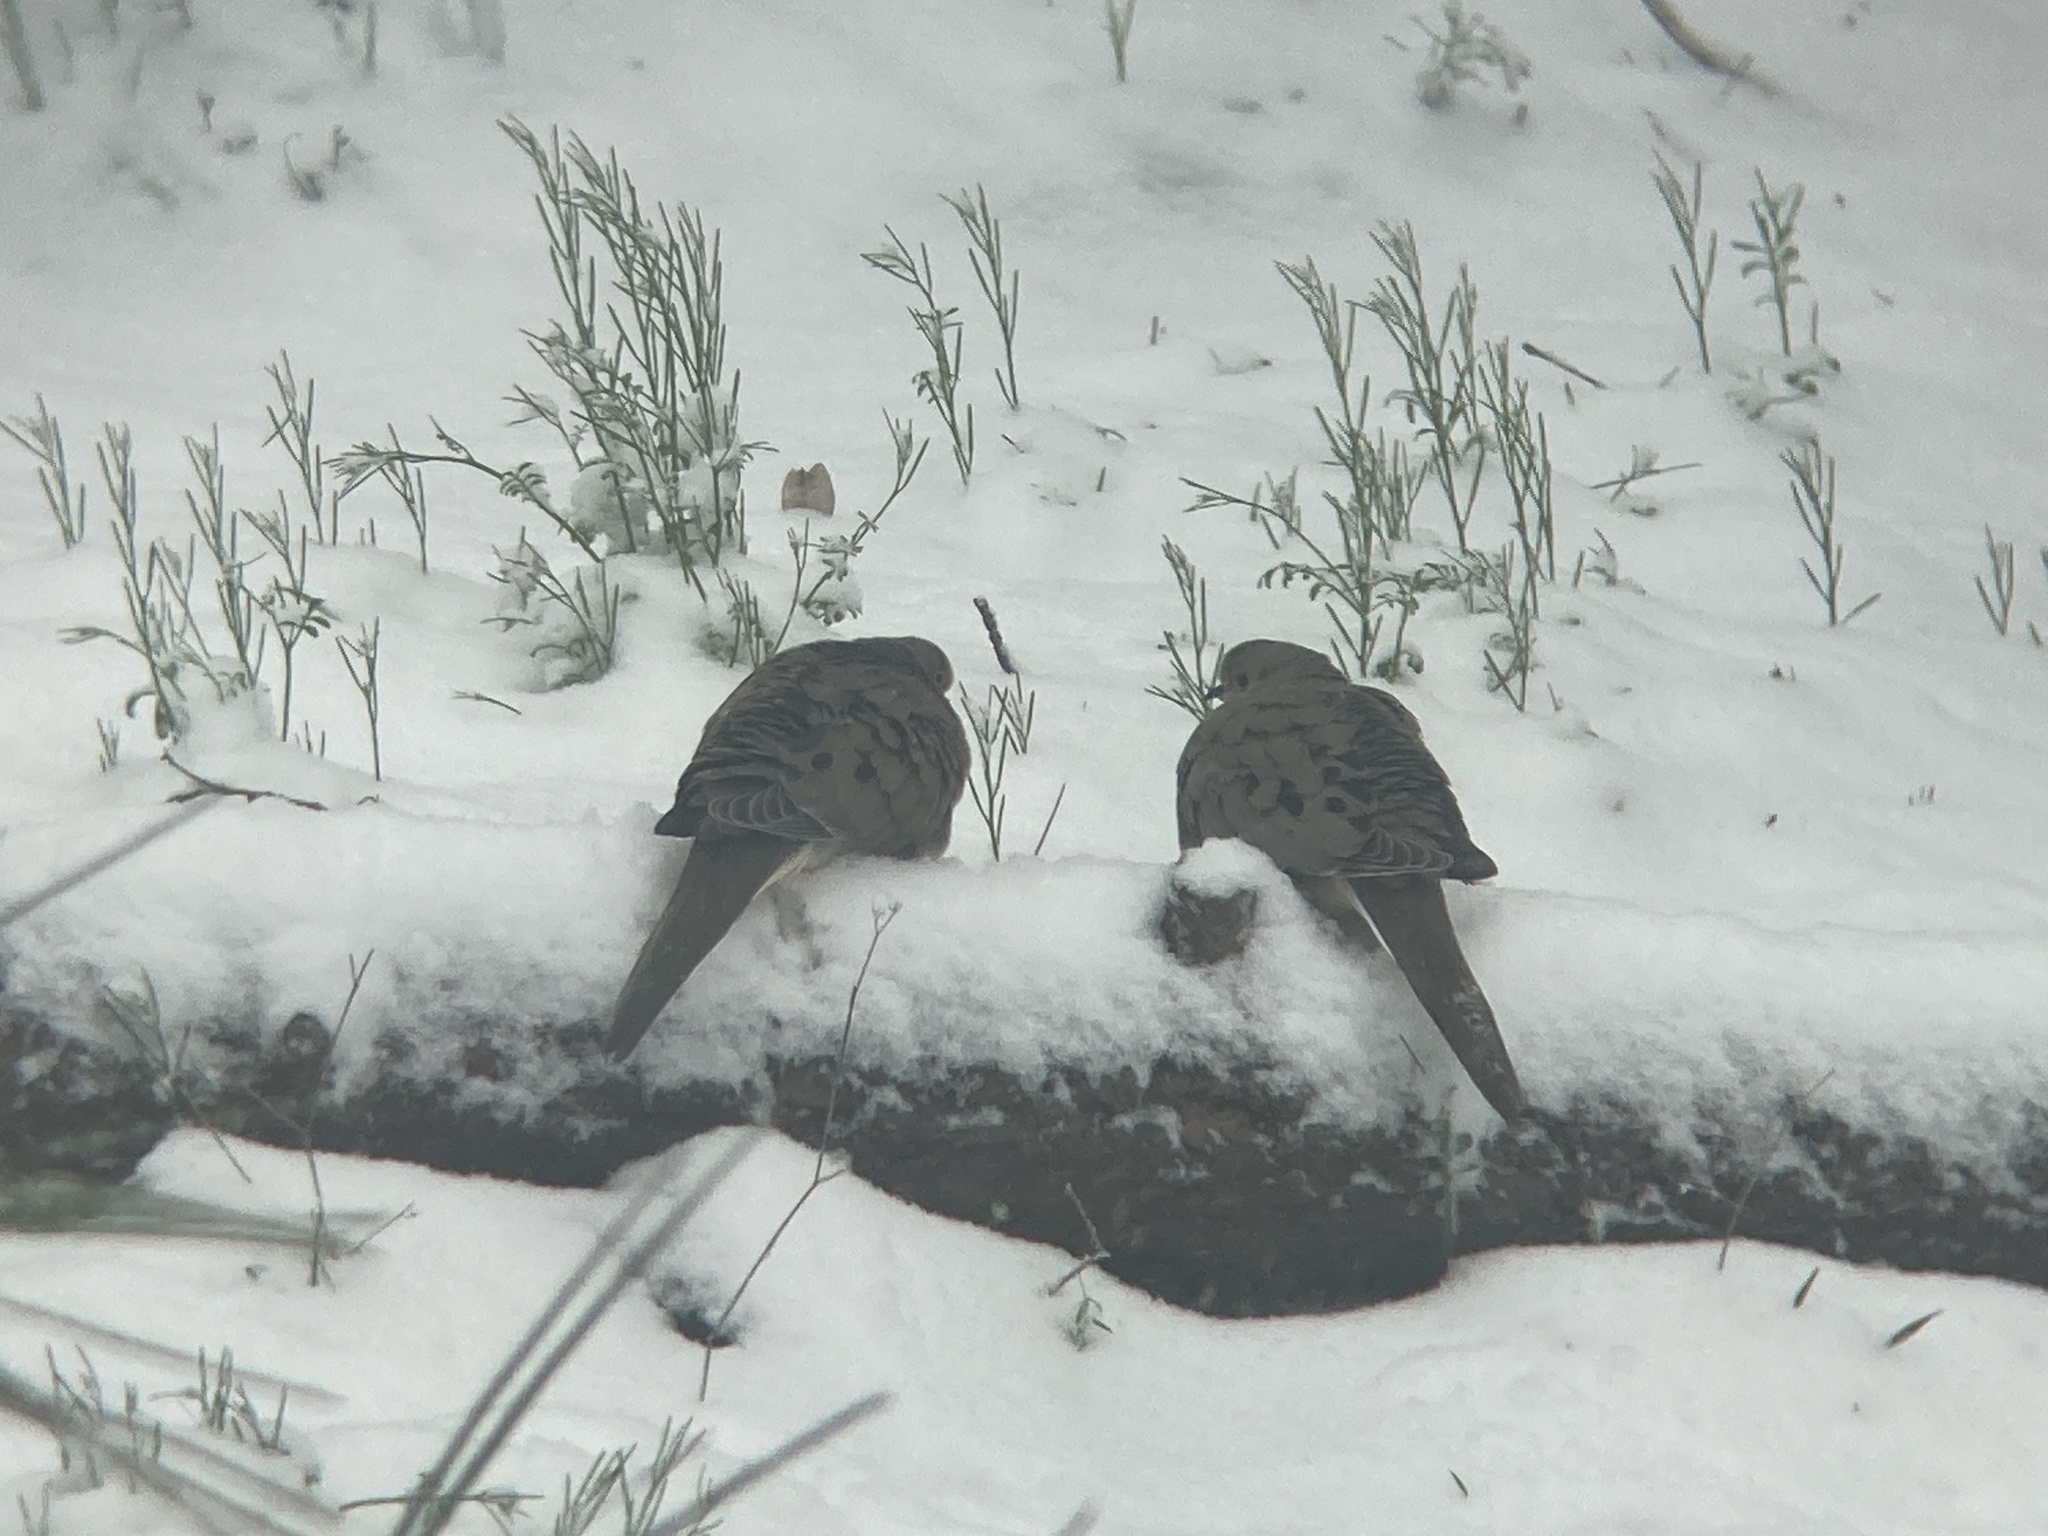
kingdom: Animalia
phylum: Chordata
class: Aves
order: Columbiformes
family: Columbidae
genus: Zenaida
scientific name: Zenaida macroura
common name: Mourning dove
